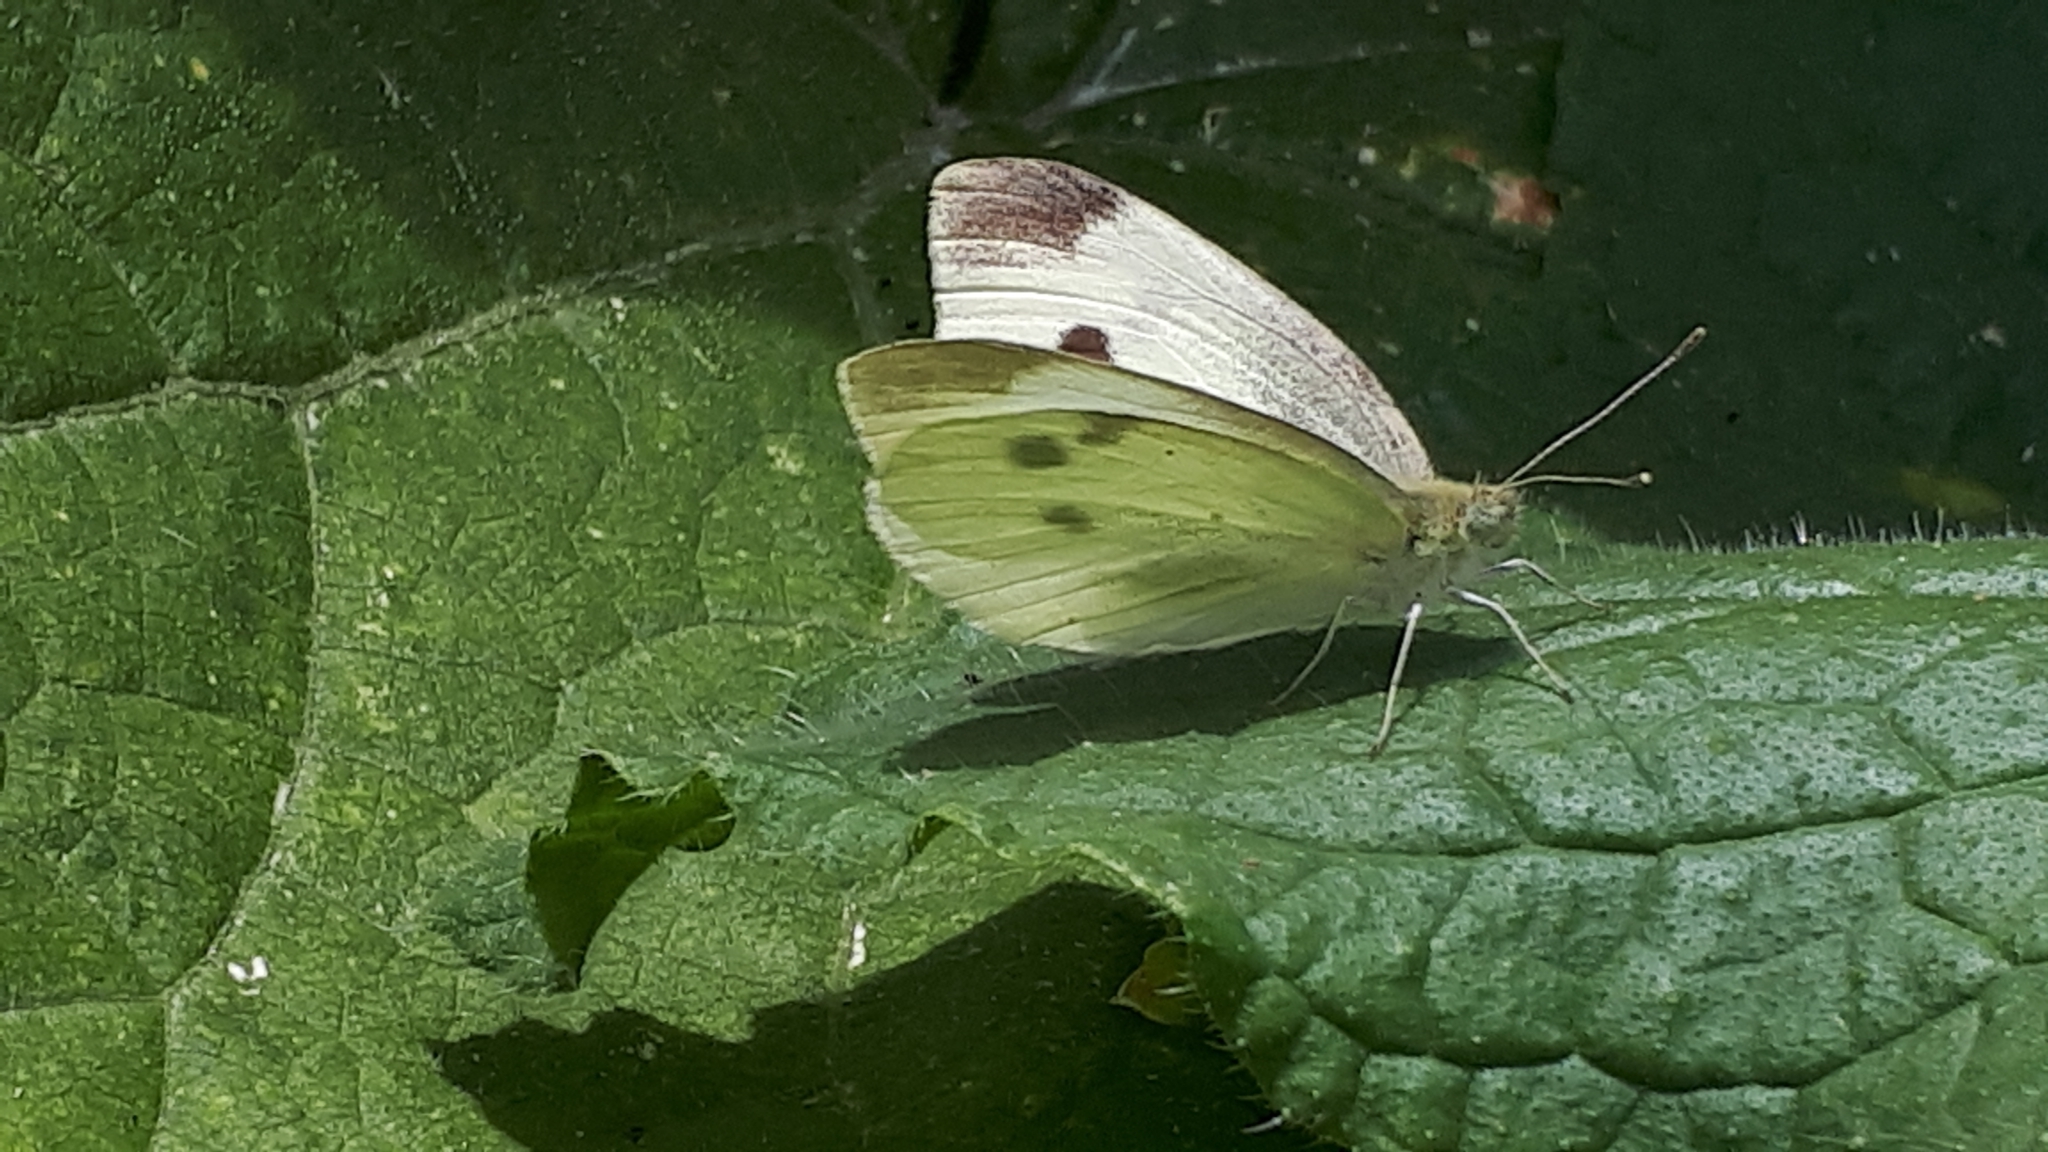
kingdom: Animalia
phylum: Arthropoda
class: Insecta
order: Lepidoptera
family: Pieridae
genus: Pieris
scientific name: Pieris rapae
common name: Small white
